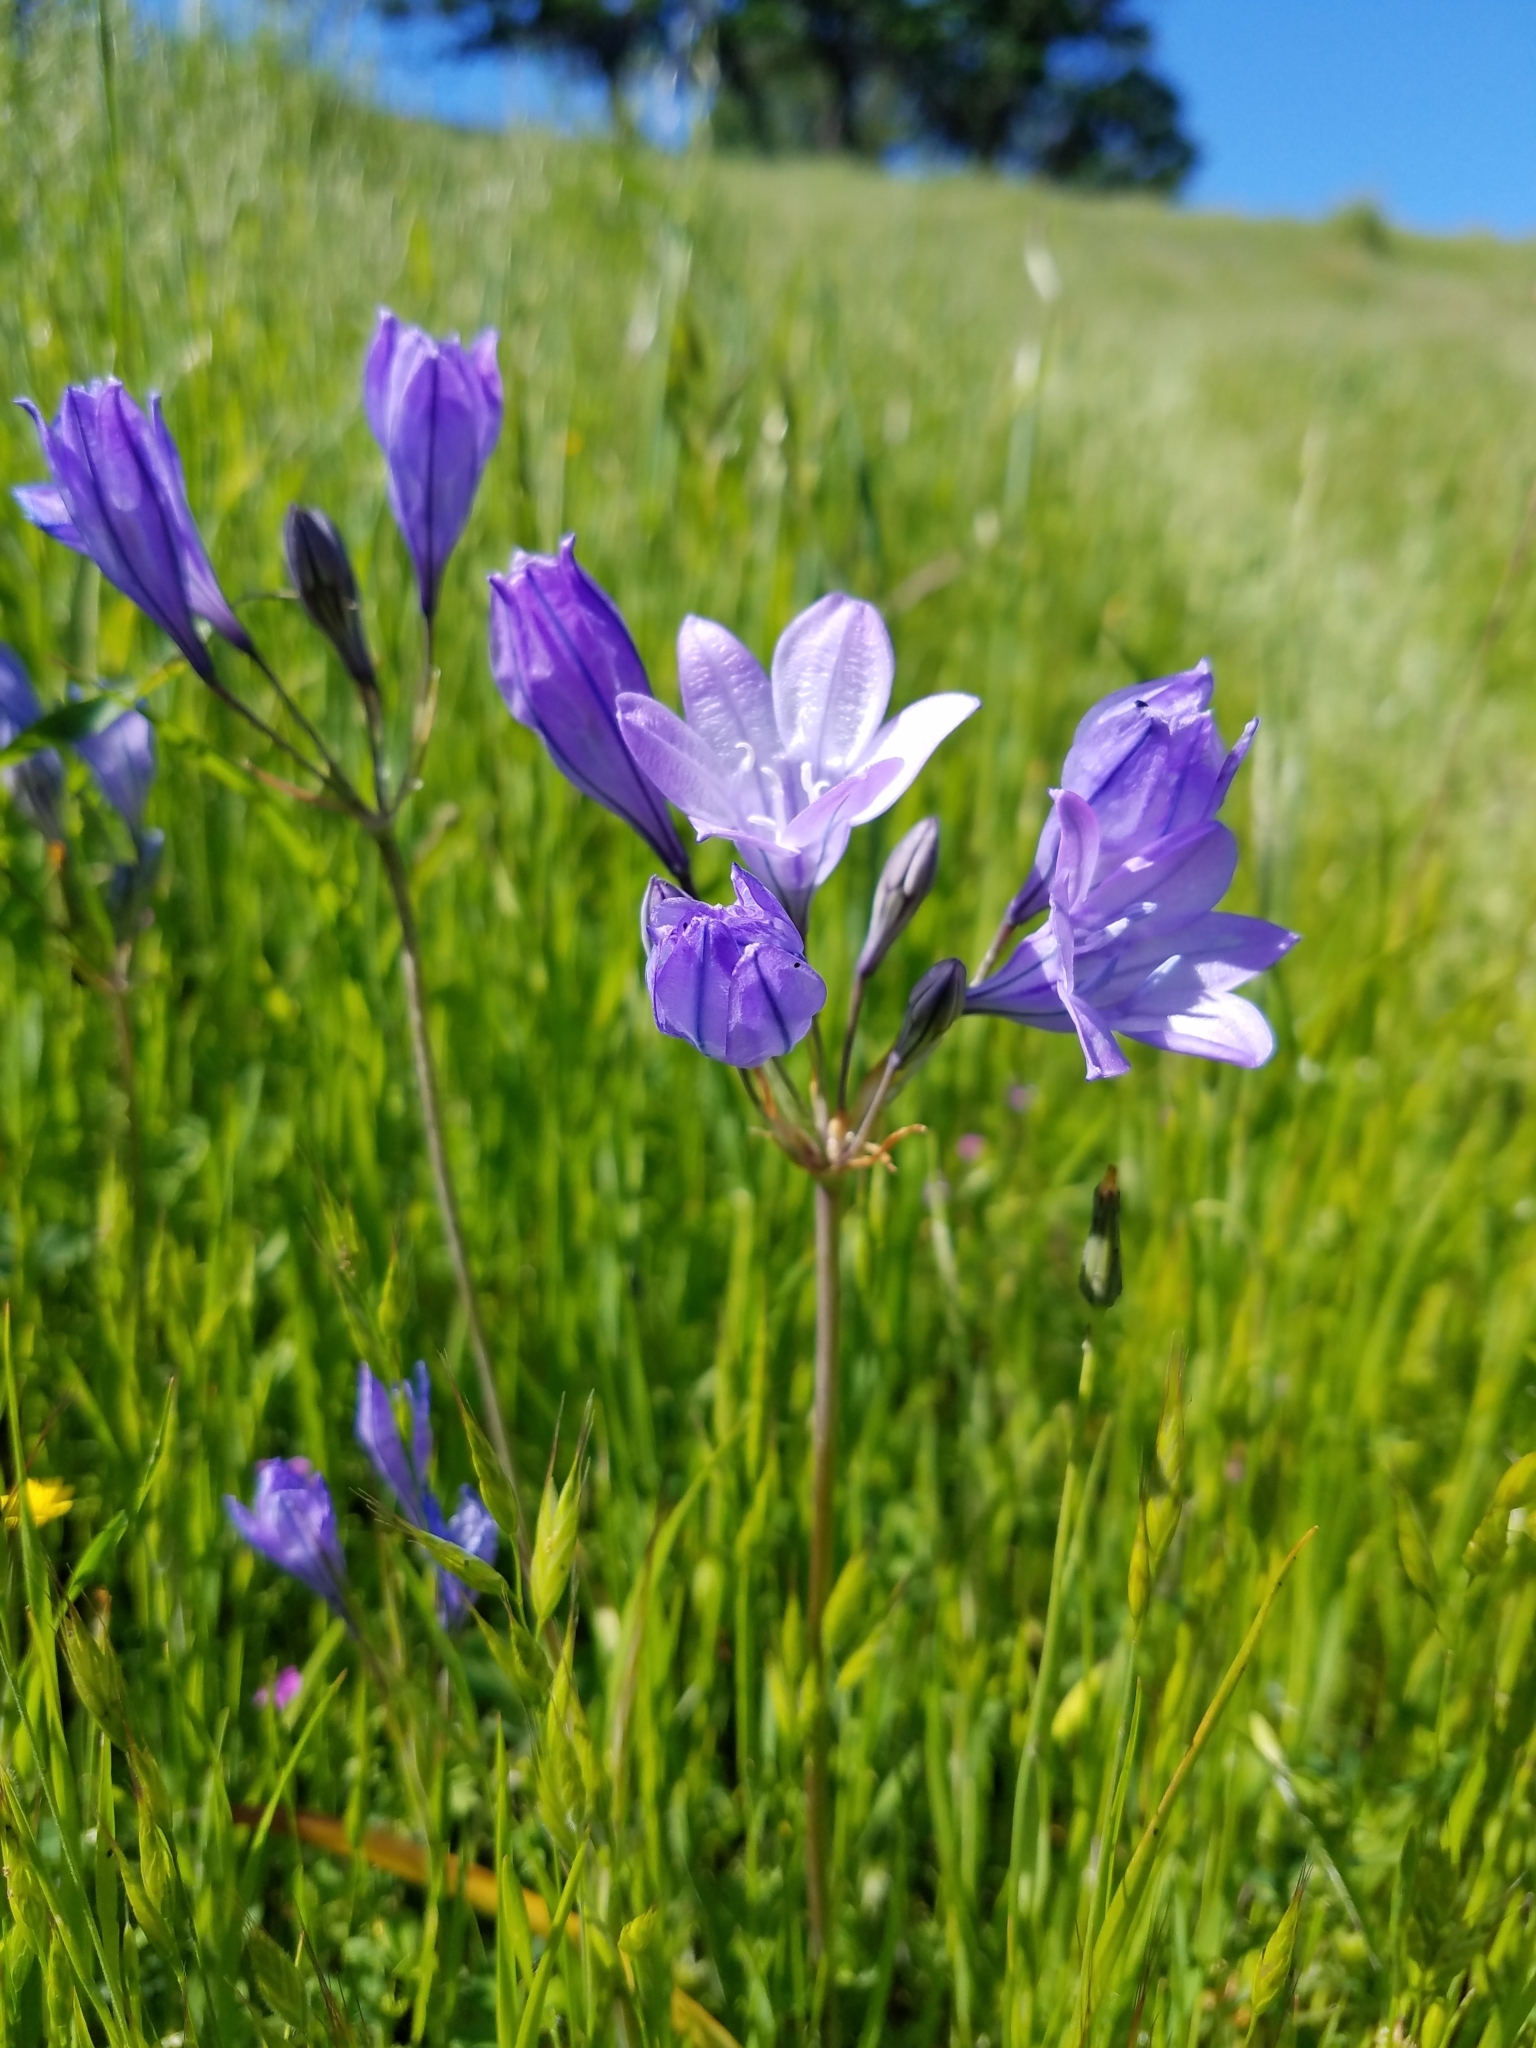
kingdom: Plantae
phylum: Tracheophyta
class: Liliopsida
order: Asparagales
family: Asparagaceae
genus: Triteleia
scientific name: Triteleia laxa
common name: Triplet-lily
